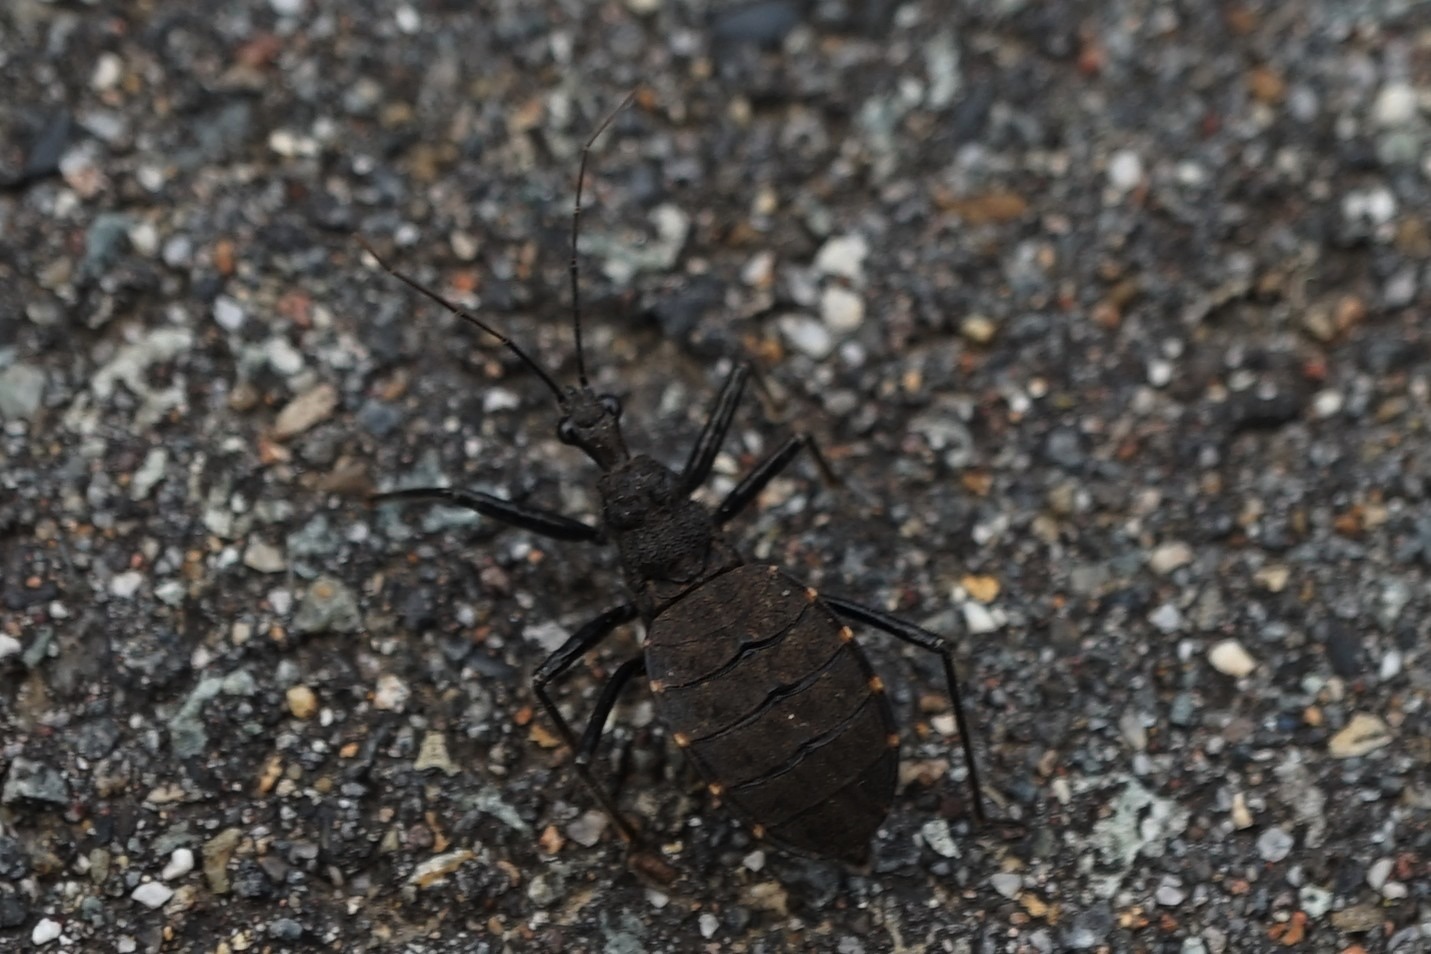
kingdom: Animalia
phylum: Arthropoda
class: Insecta
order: Hemiptera
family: Reduviidae
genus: Coranus
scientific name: Coranus dilatatus
